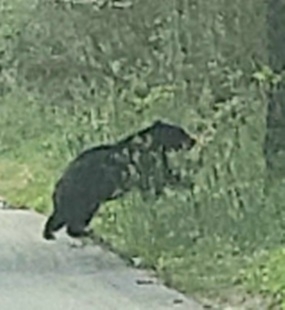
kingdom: Animalia
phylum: Chordata
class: Mammalia
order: Carnivora
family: Ursidae
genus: Ursus
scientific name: Ursus americanus
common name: American black bear
